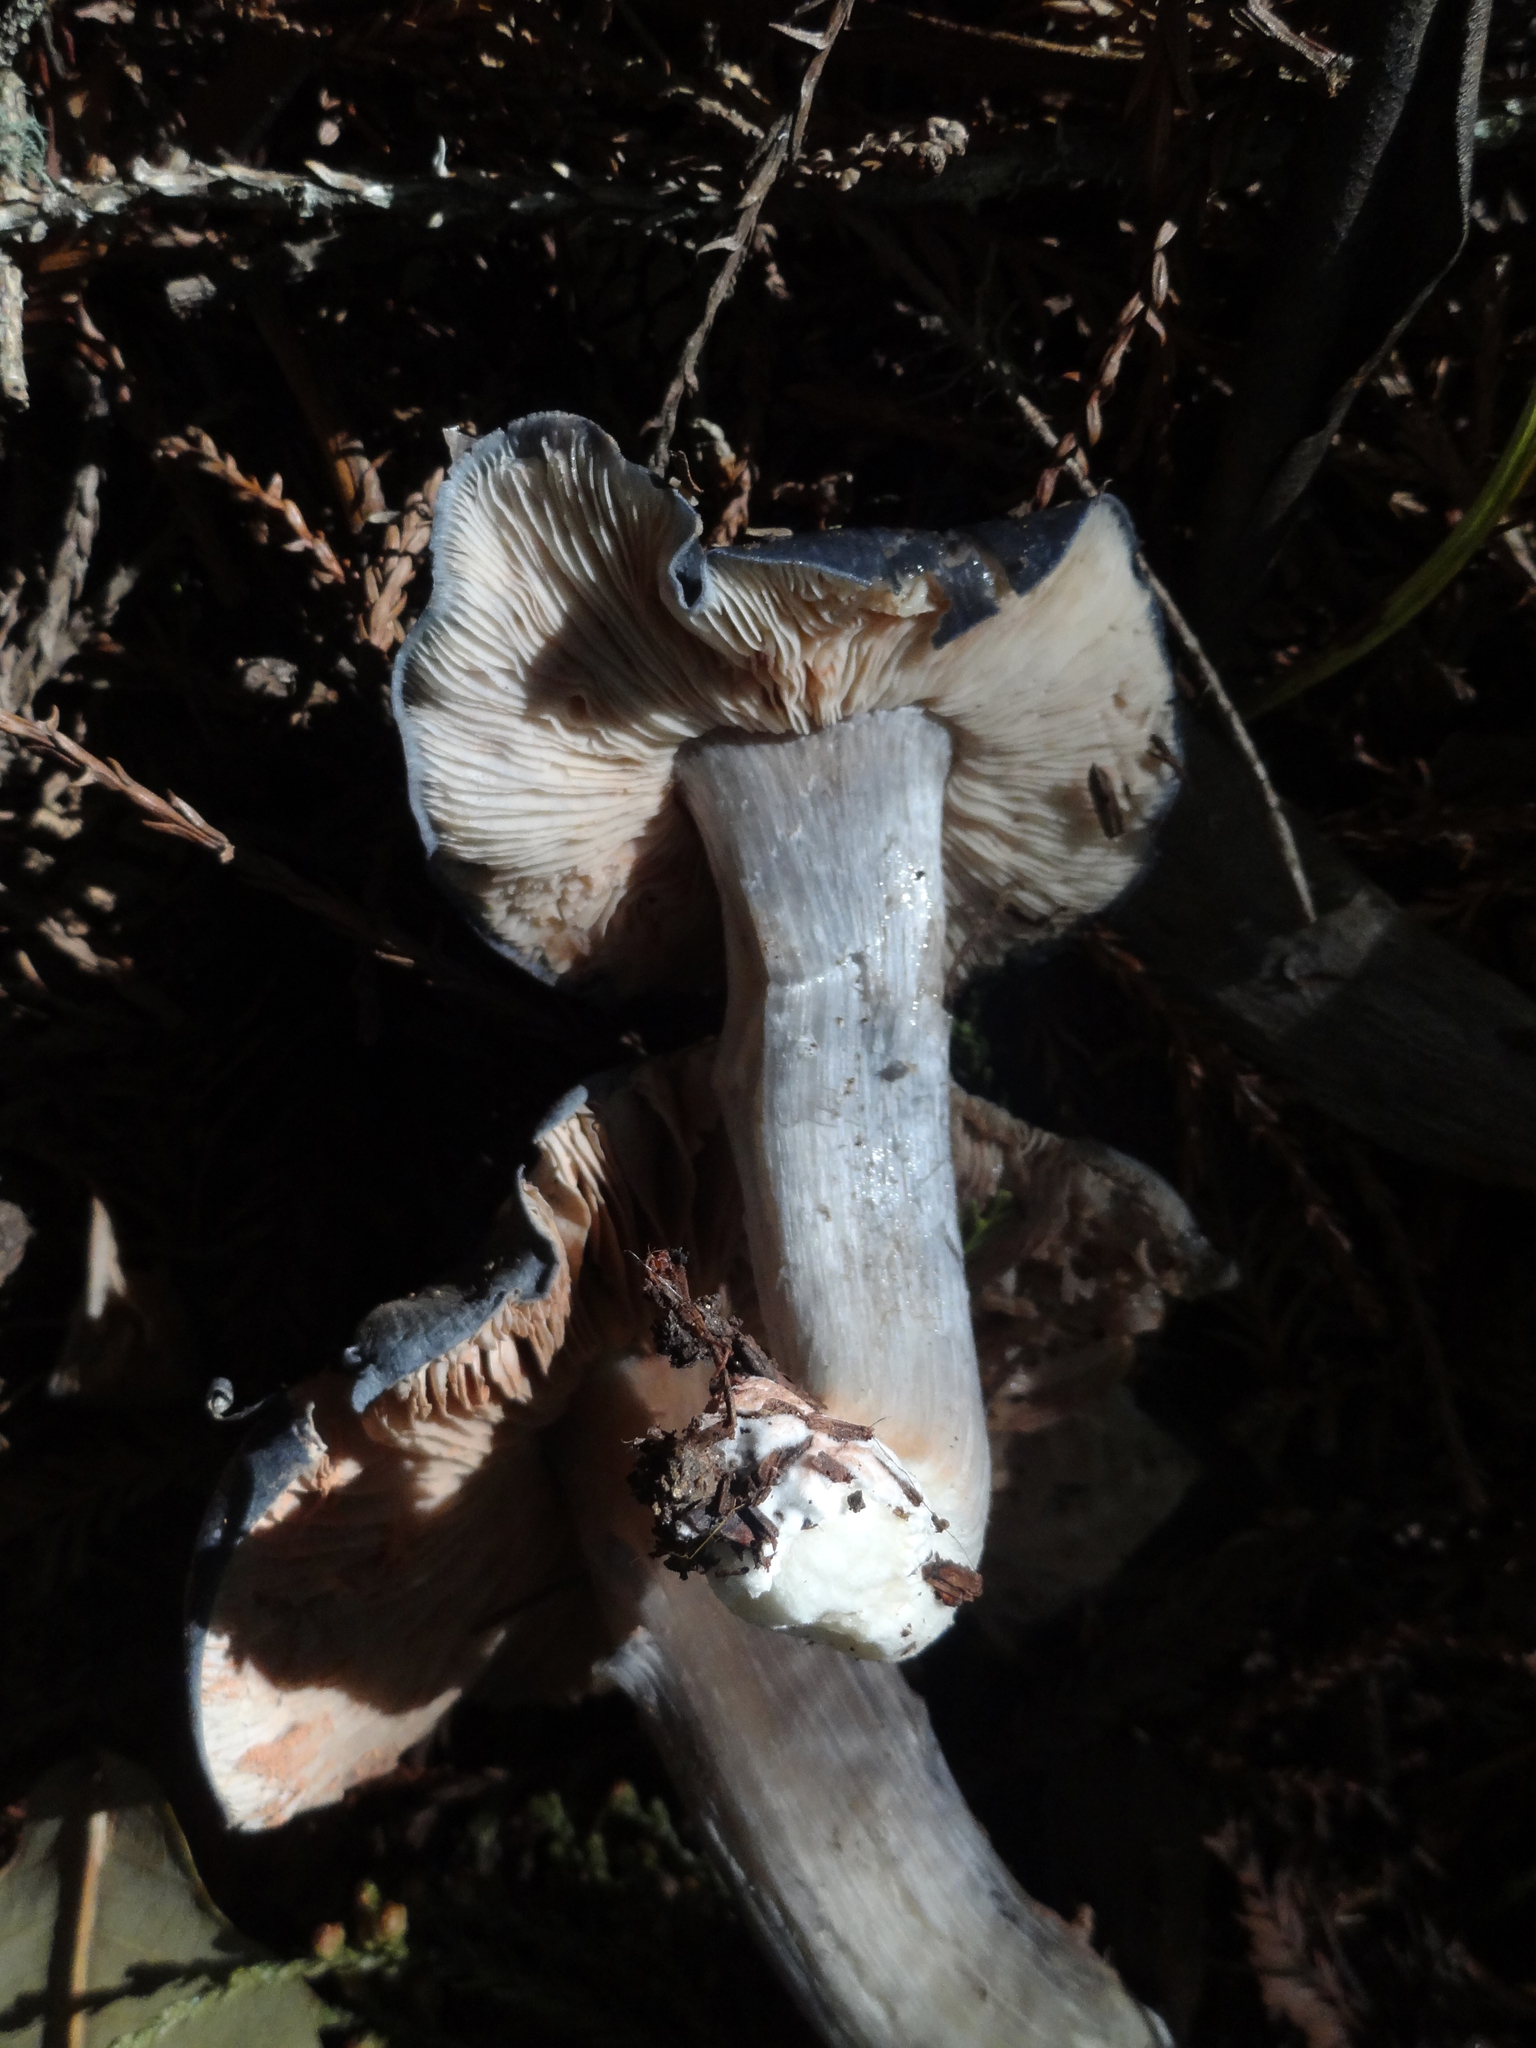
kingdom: Fungi
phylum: Basidiomycota
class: Agaricomycetes
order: Agaricales
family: Entolomataceae
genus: Entoloma
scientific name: Entoloma medianox
